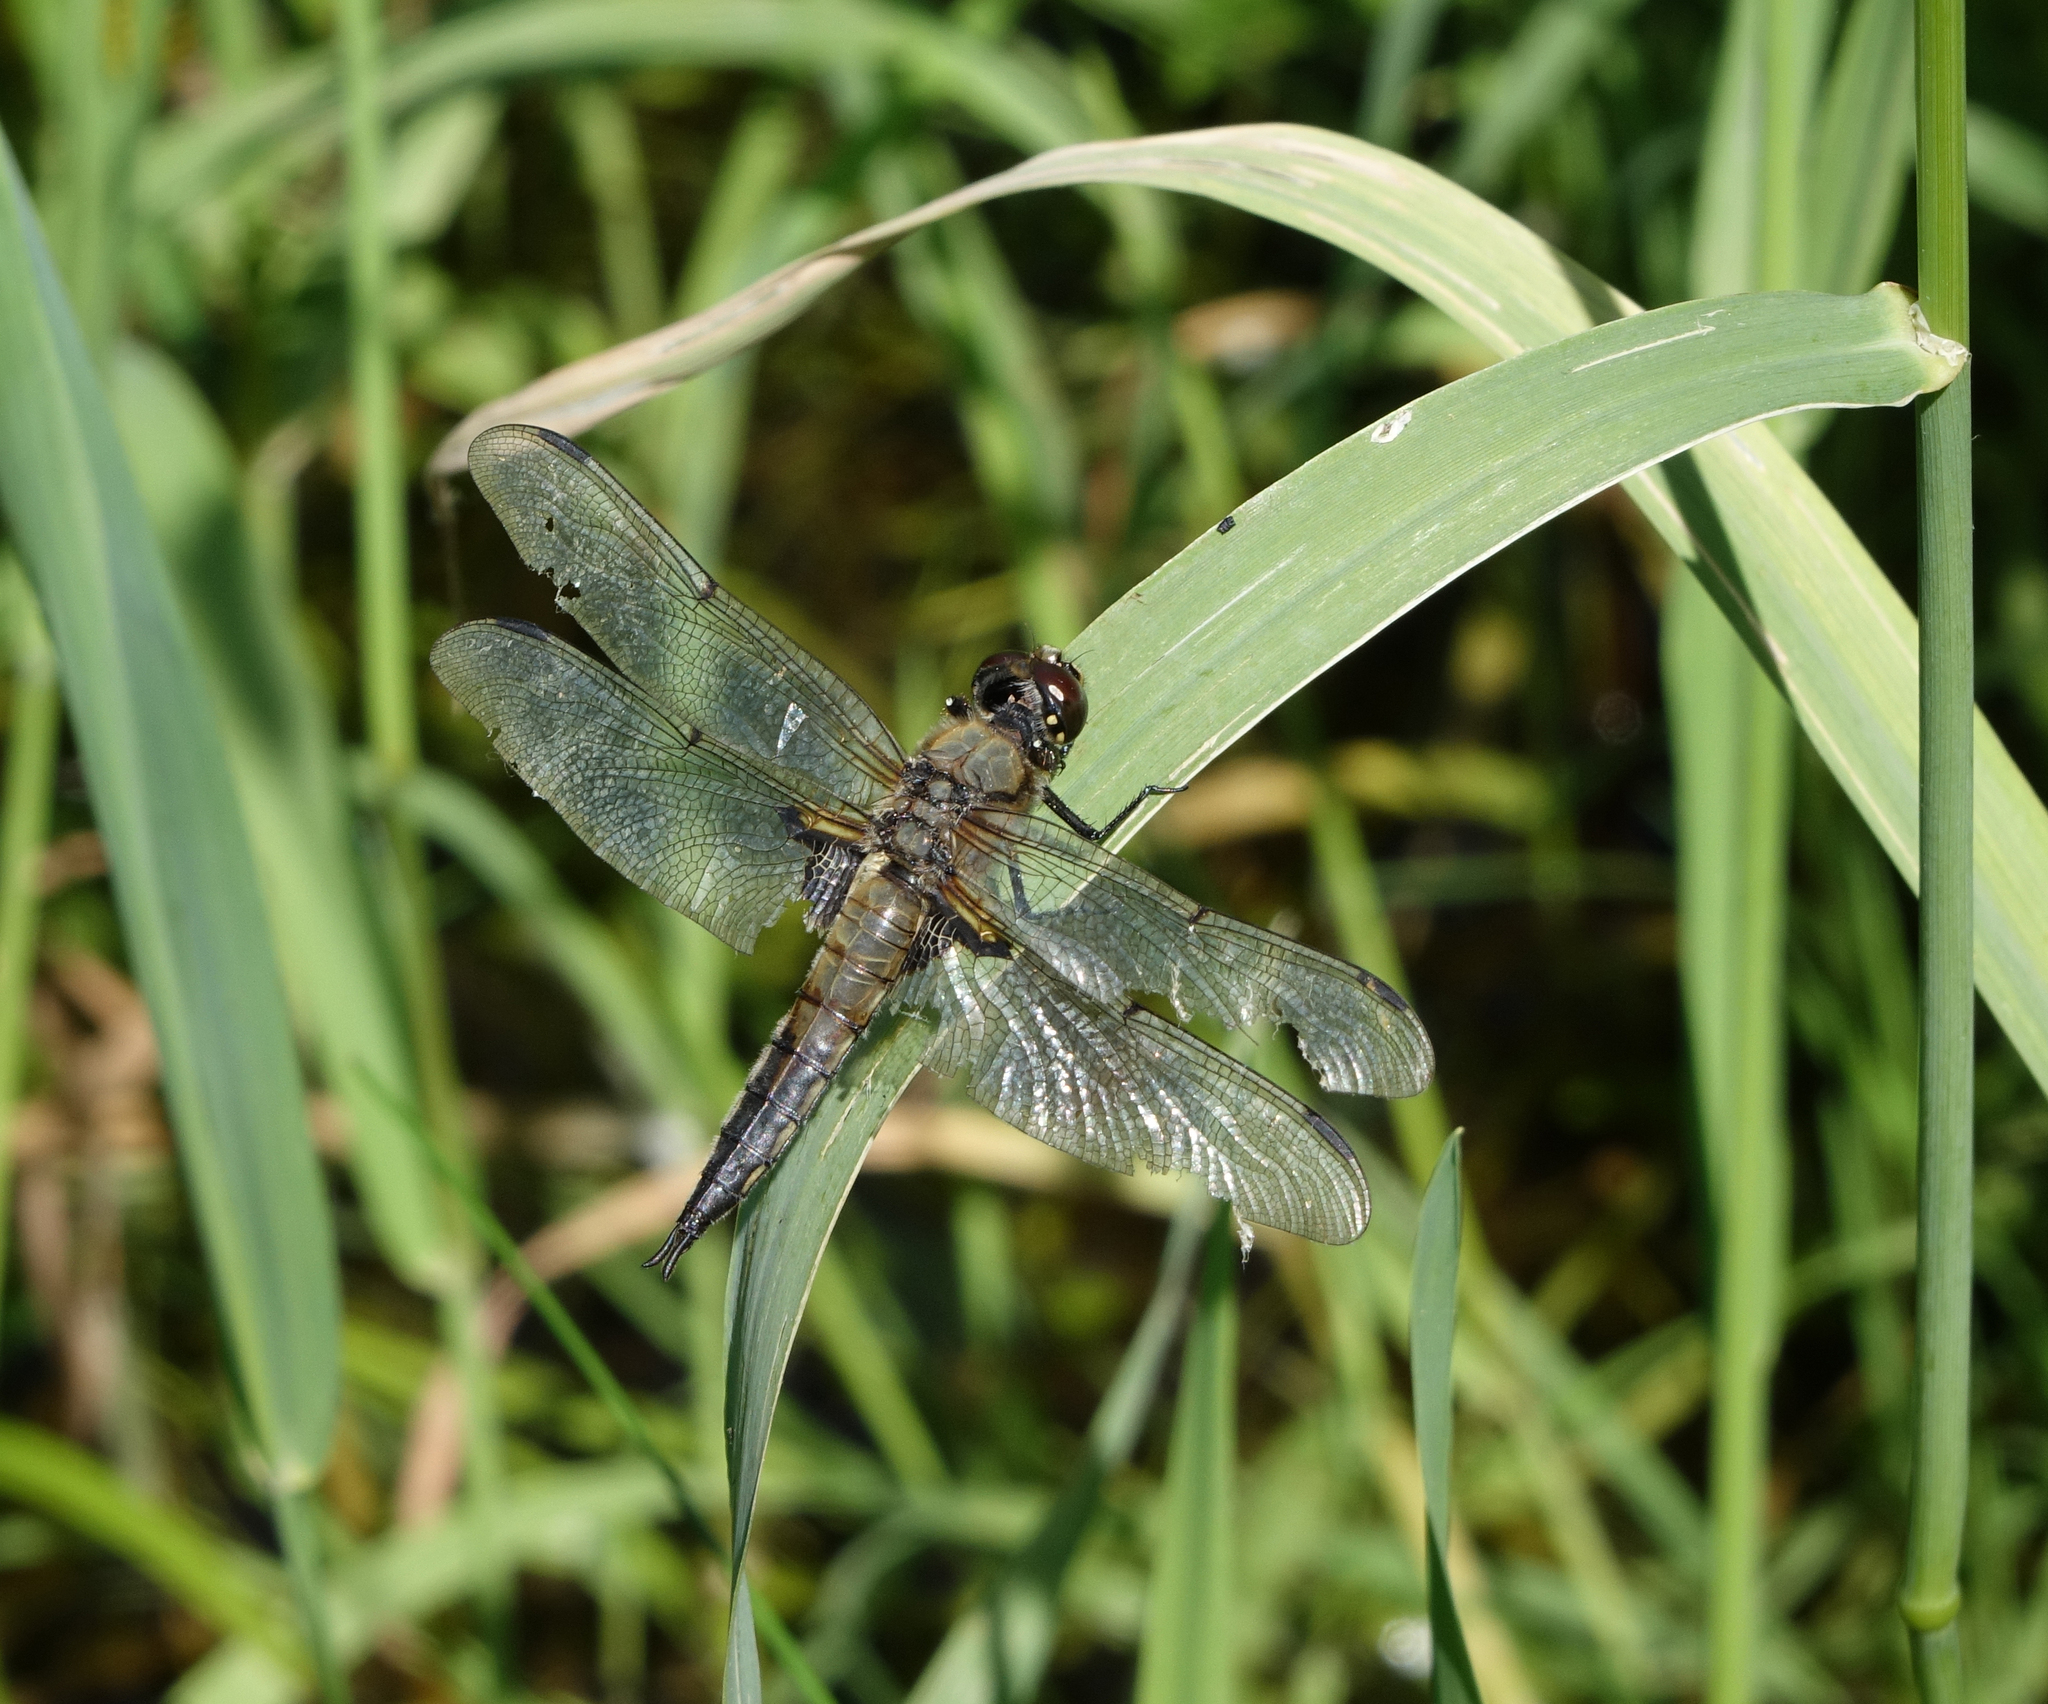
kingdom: Animalia
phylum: Arthropoda
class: Insecta
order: Odonata
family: Libellulidae
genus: Libellula
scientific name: Libellula quadrimaculata
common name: Four-spotted chaser
